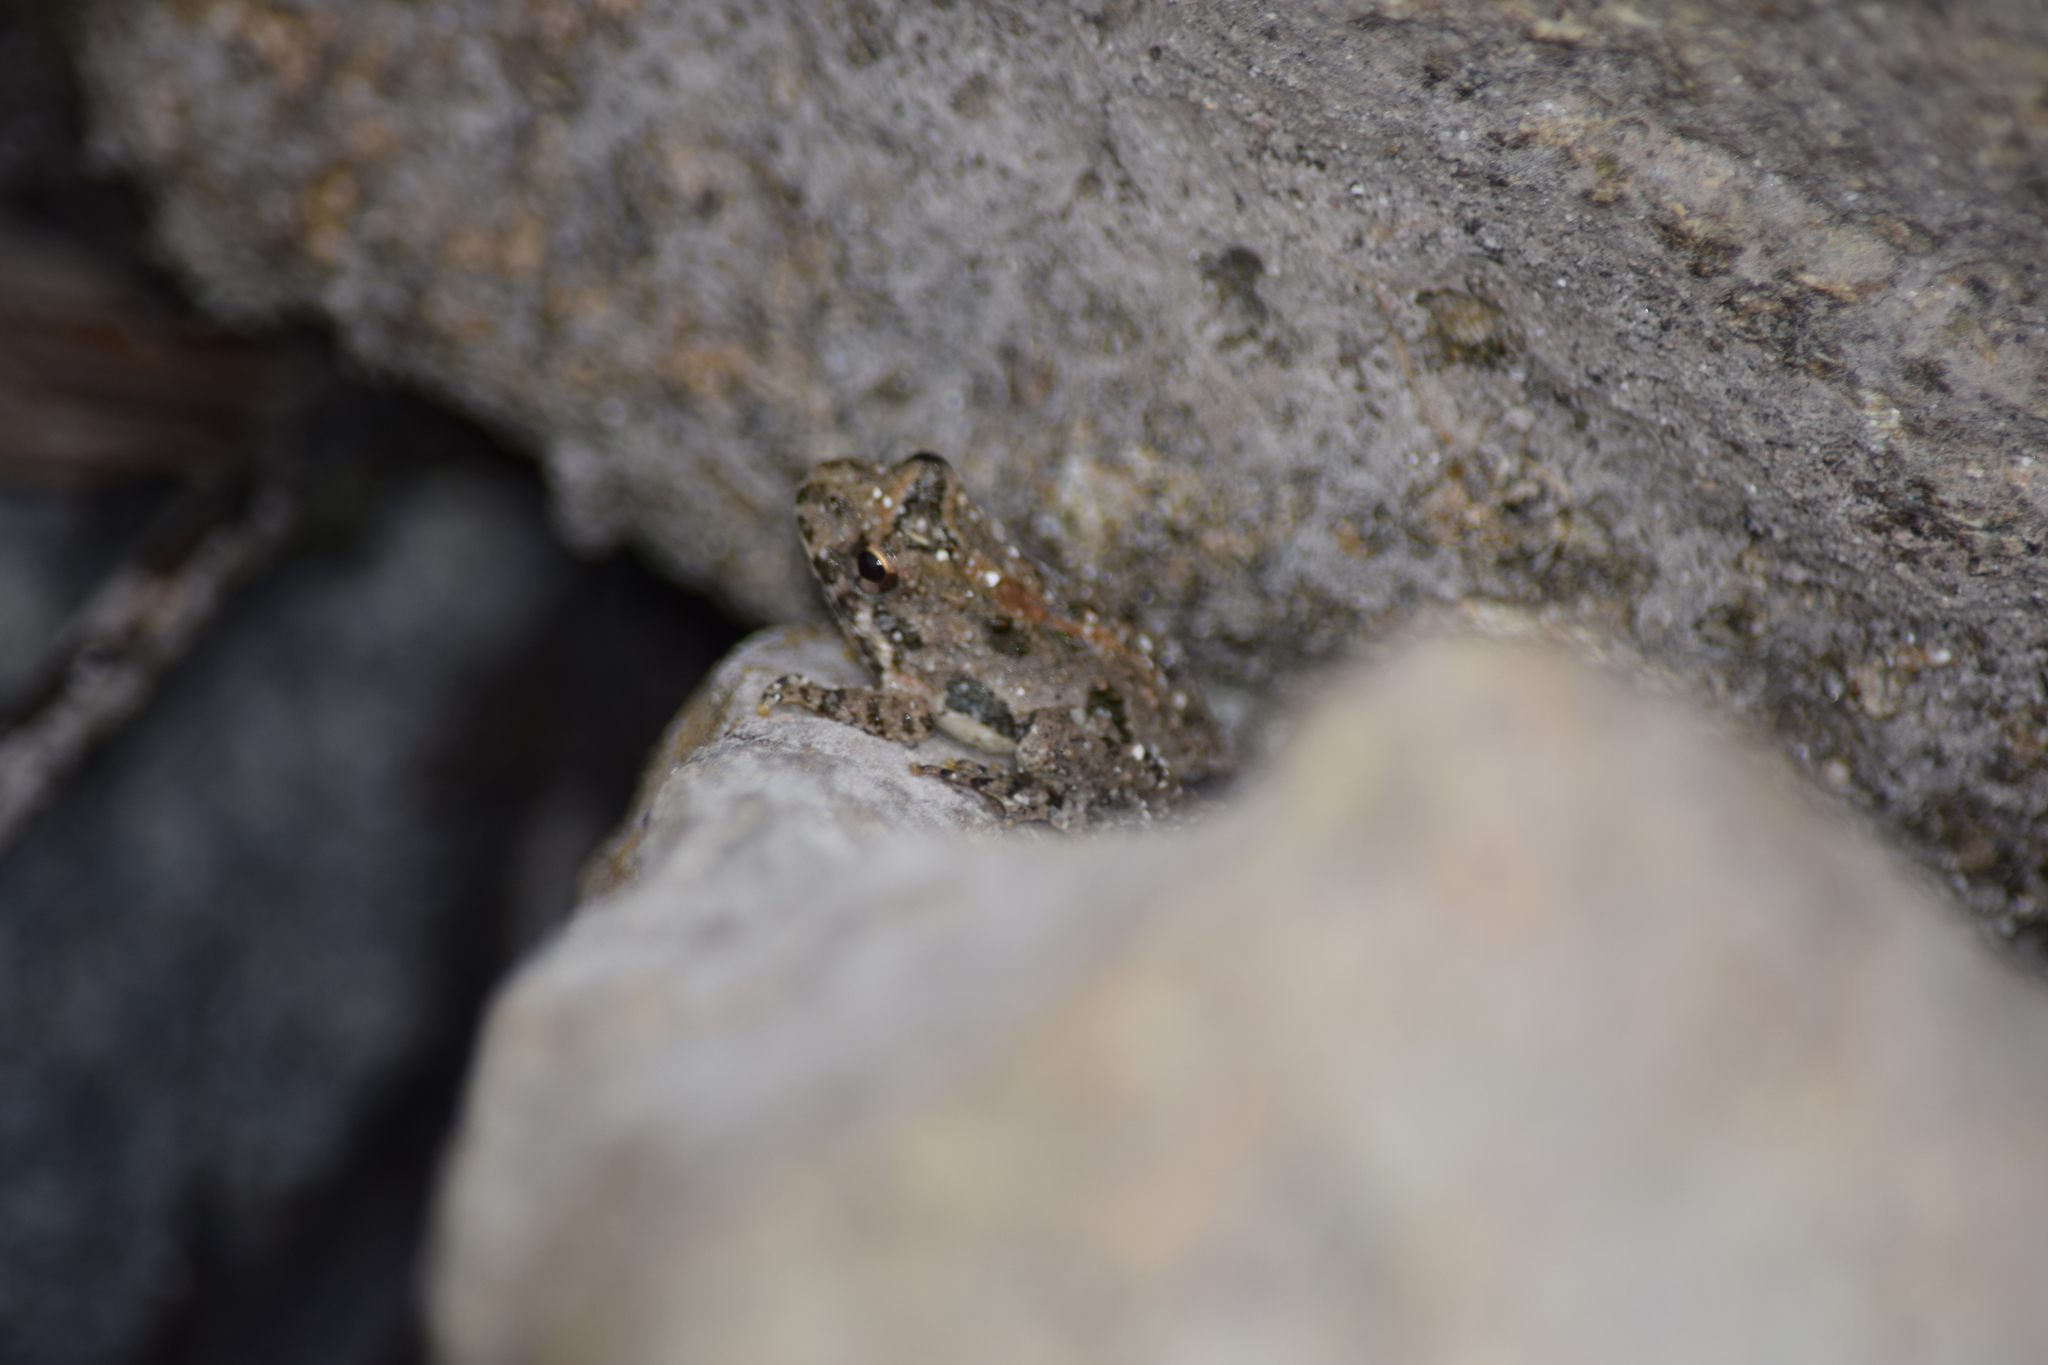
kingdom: Animalia
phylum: Chordata
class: Amphibia
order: Anura
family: Hylidae
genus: Acris
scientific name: Acris crepitans
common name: Northern cricket frog
